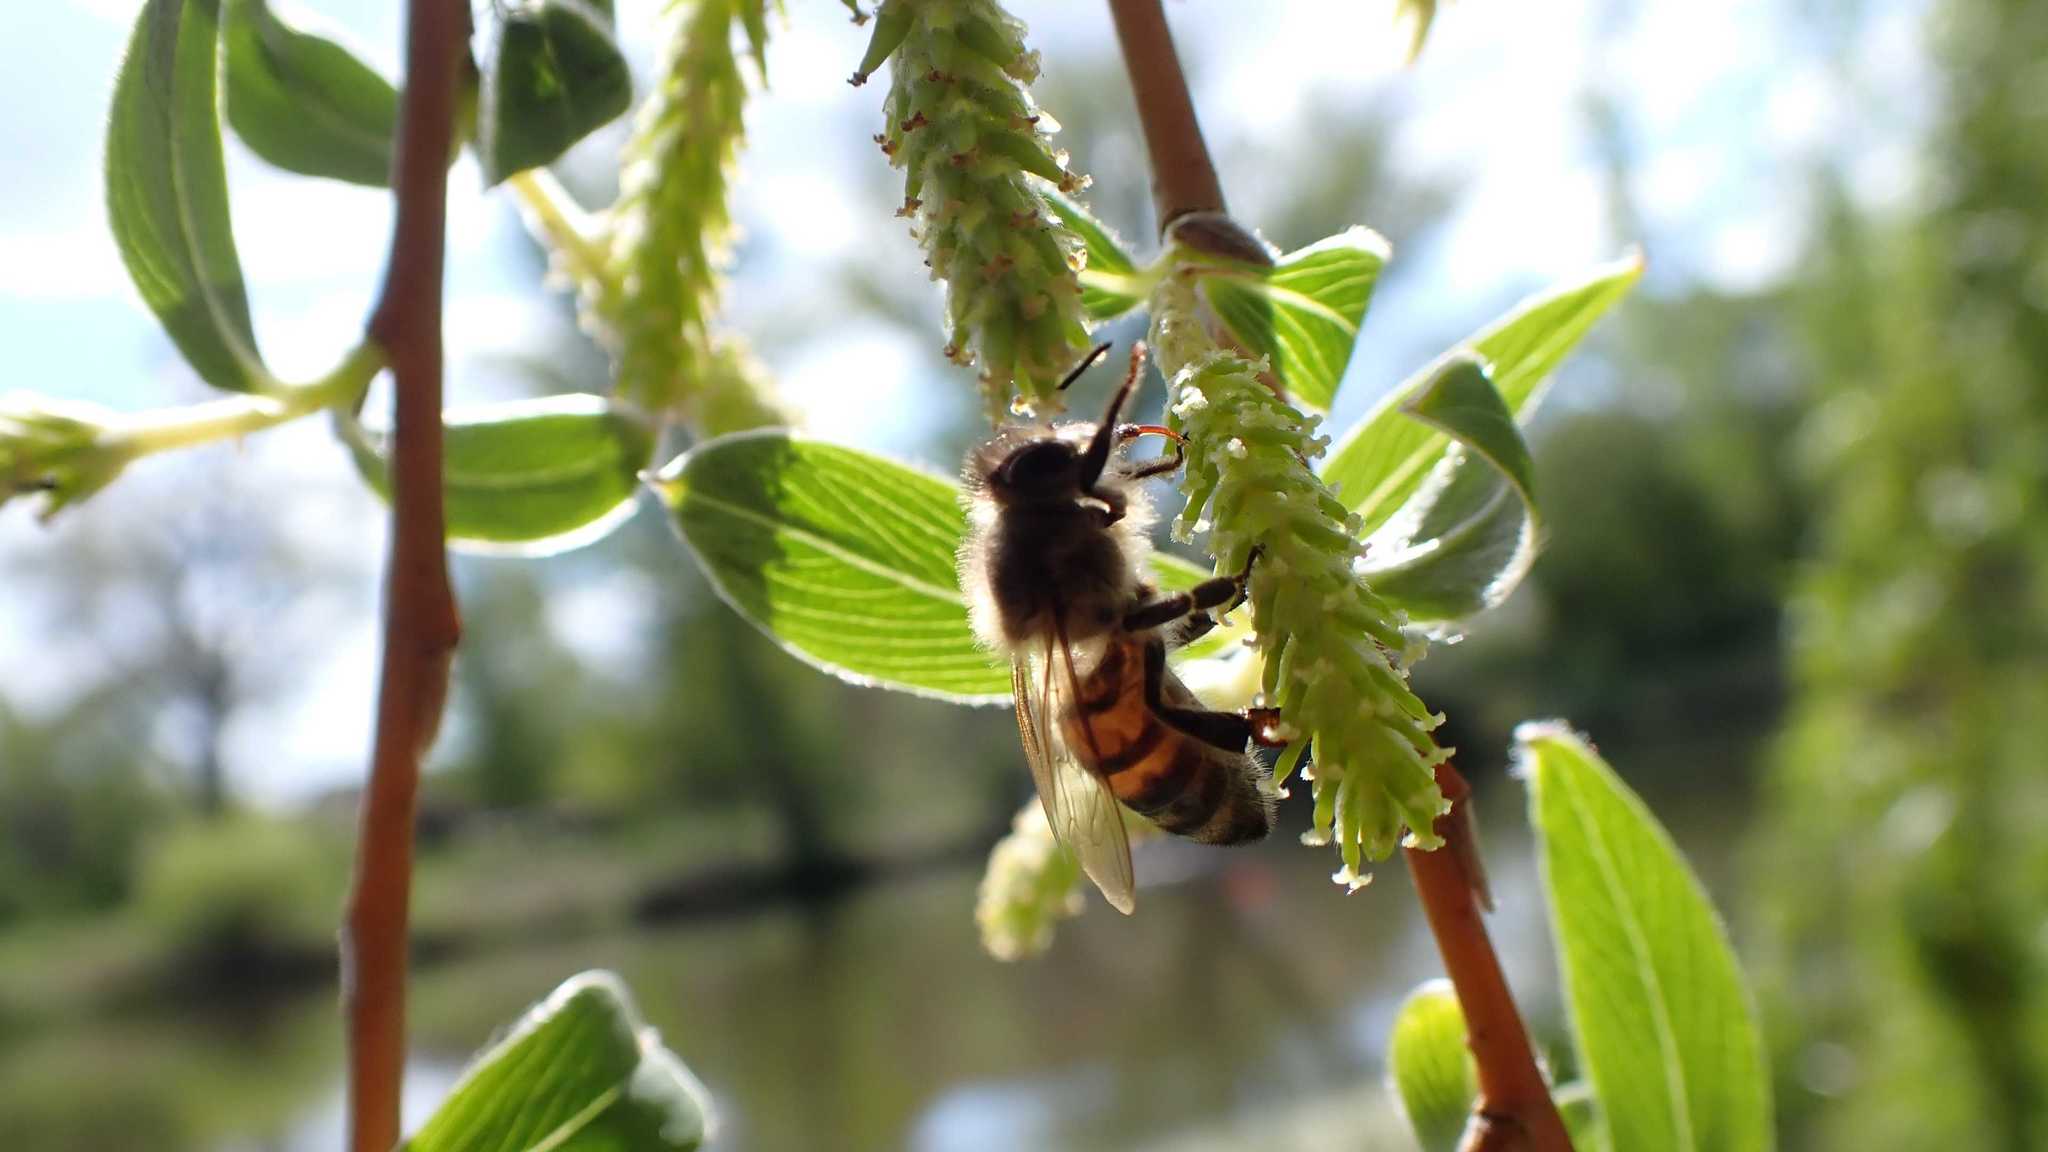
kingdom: Animalia
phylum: Arthropoda
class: Insecta
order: Hymenoptera
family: Apidae
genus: Apis
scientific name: Apis mellifera
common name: Honey bee
